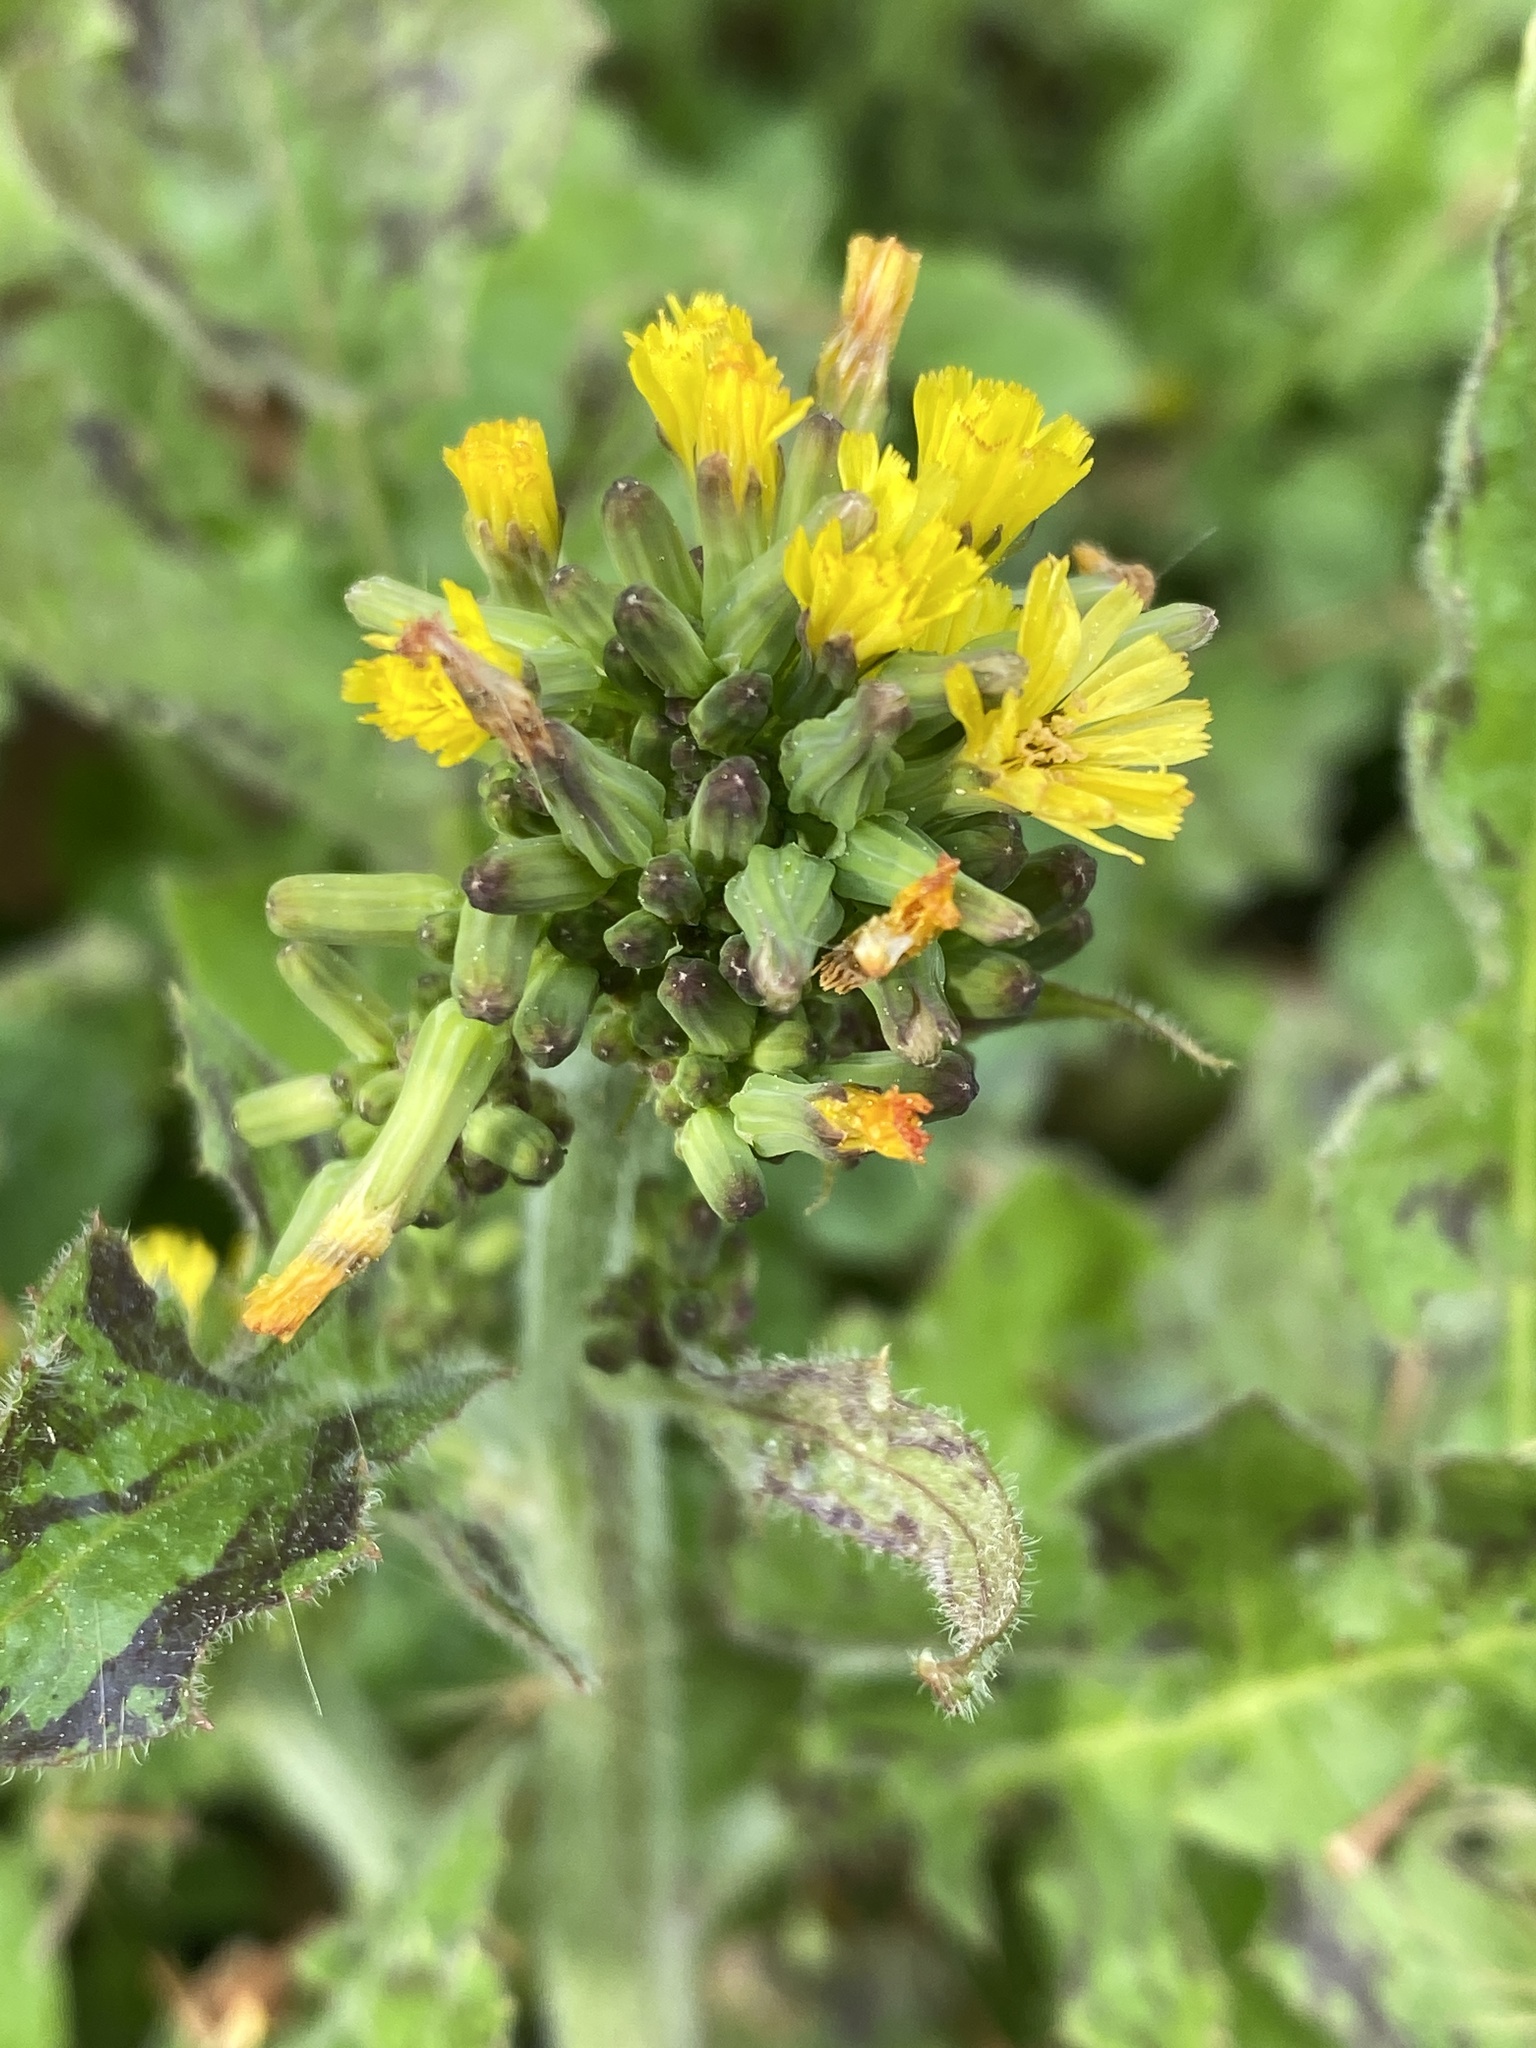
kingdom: Plantae
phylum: Tracheophyta
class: Magnoliopsida
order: Asterales
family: Asteraceae
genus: Youngia
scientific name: Youngia japonica
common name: Oriental false hawksbeard
